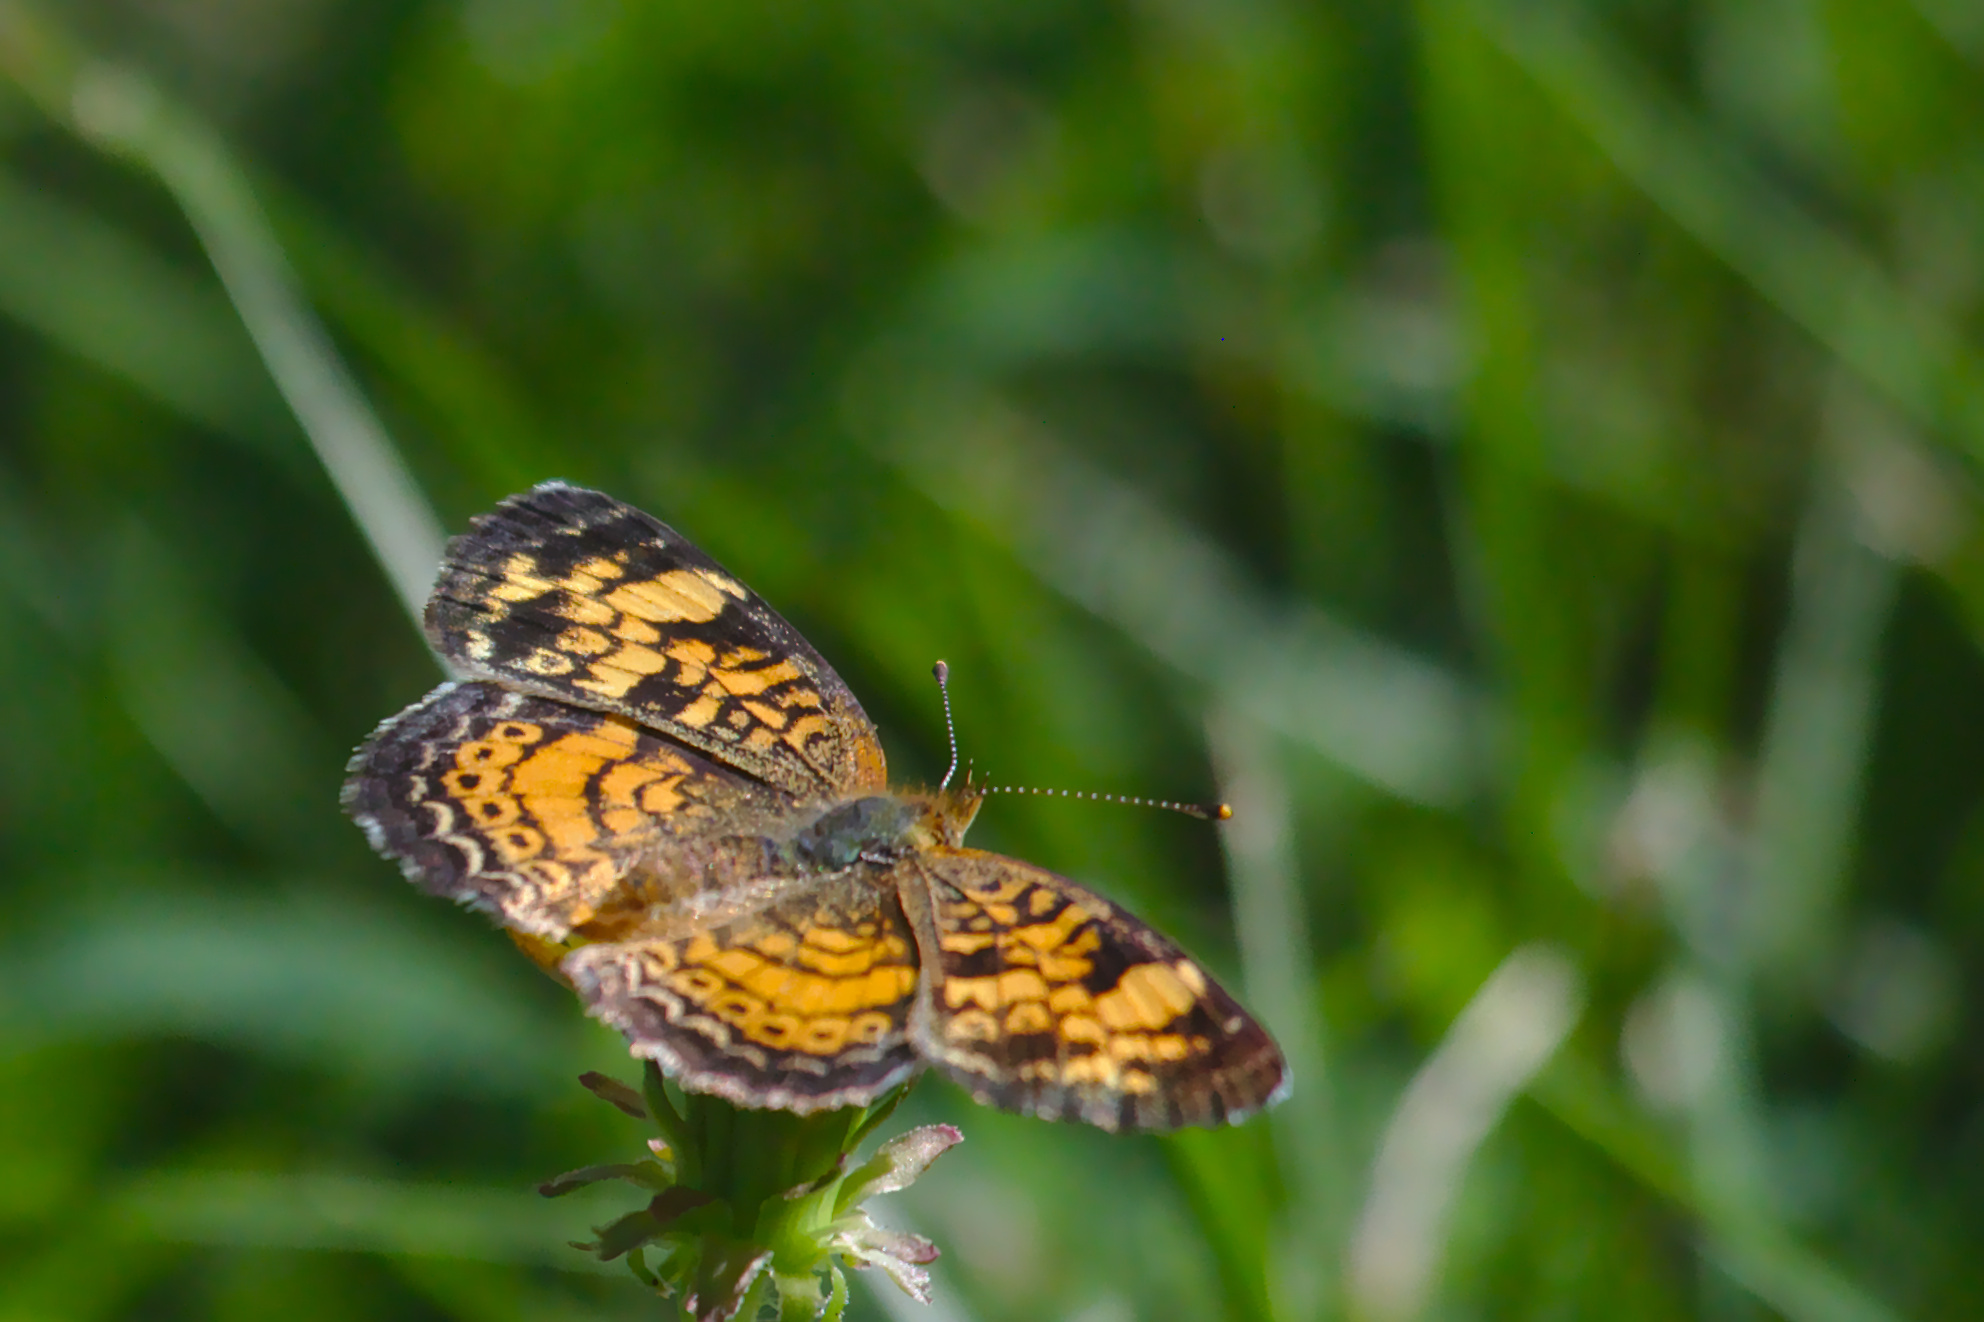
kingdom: Animalia
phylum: Arthropoda
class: Insecta
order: Lepidoptera
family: Nymphalidae
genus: Phyciodes
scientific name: Phyciodes tharos
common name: Pearl crescent
